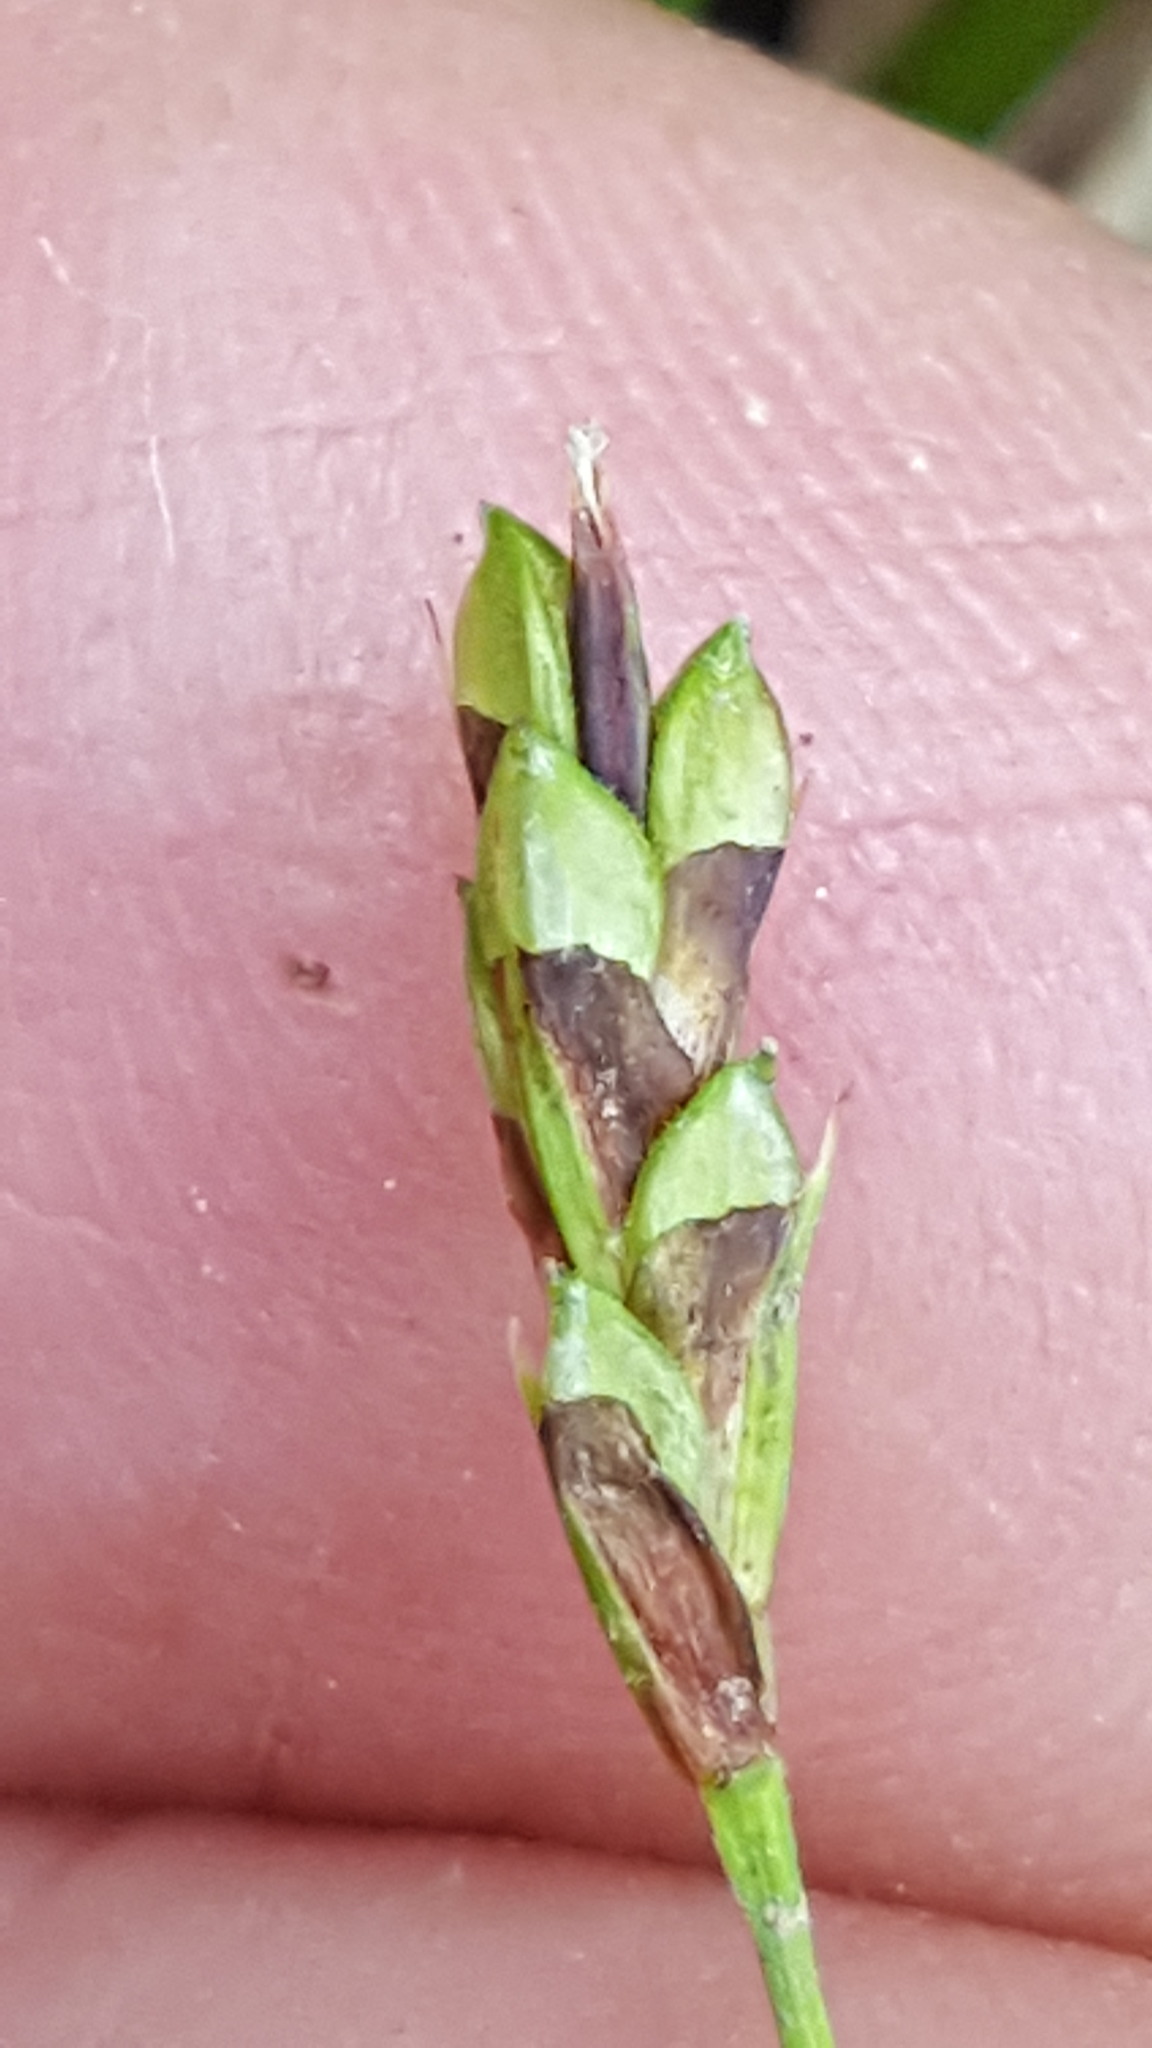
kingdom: Plantae
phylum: Tracheophyta
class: Liliopsida
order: Poales
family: Cyperaceae
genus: Carex
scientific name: Carex pedunculata
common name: Pedunculate sedge
